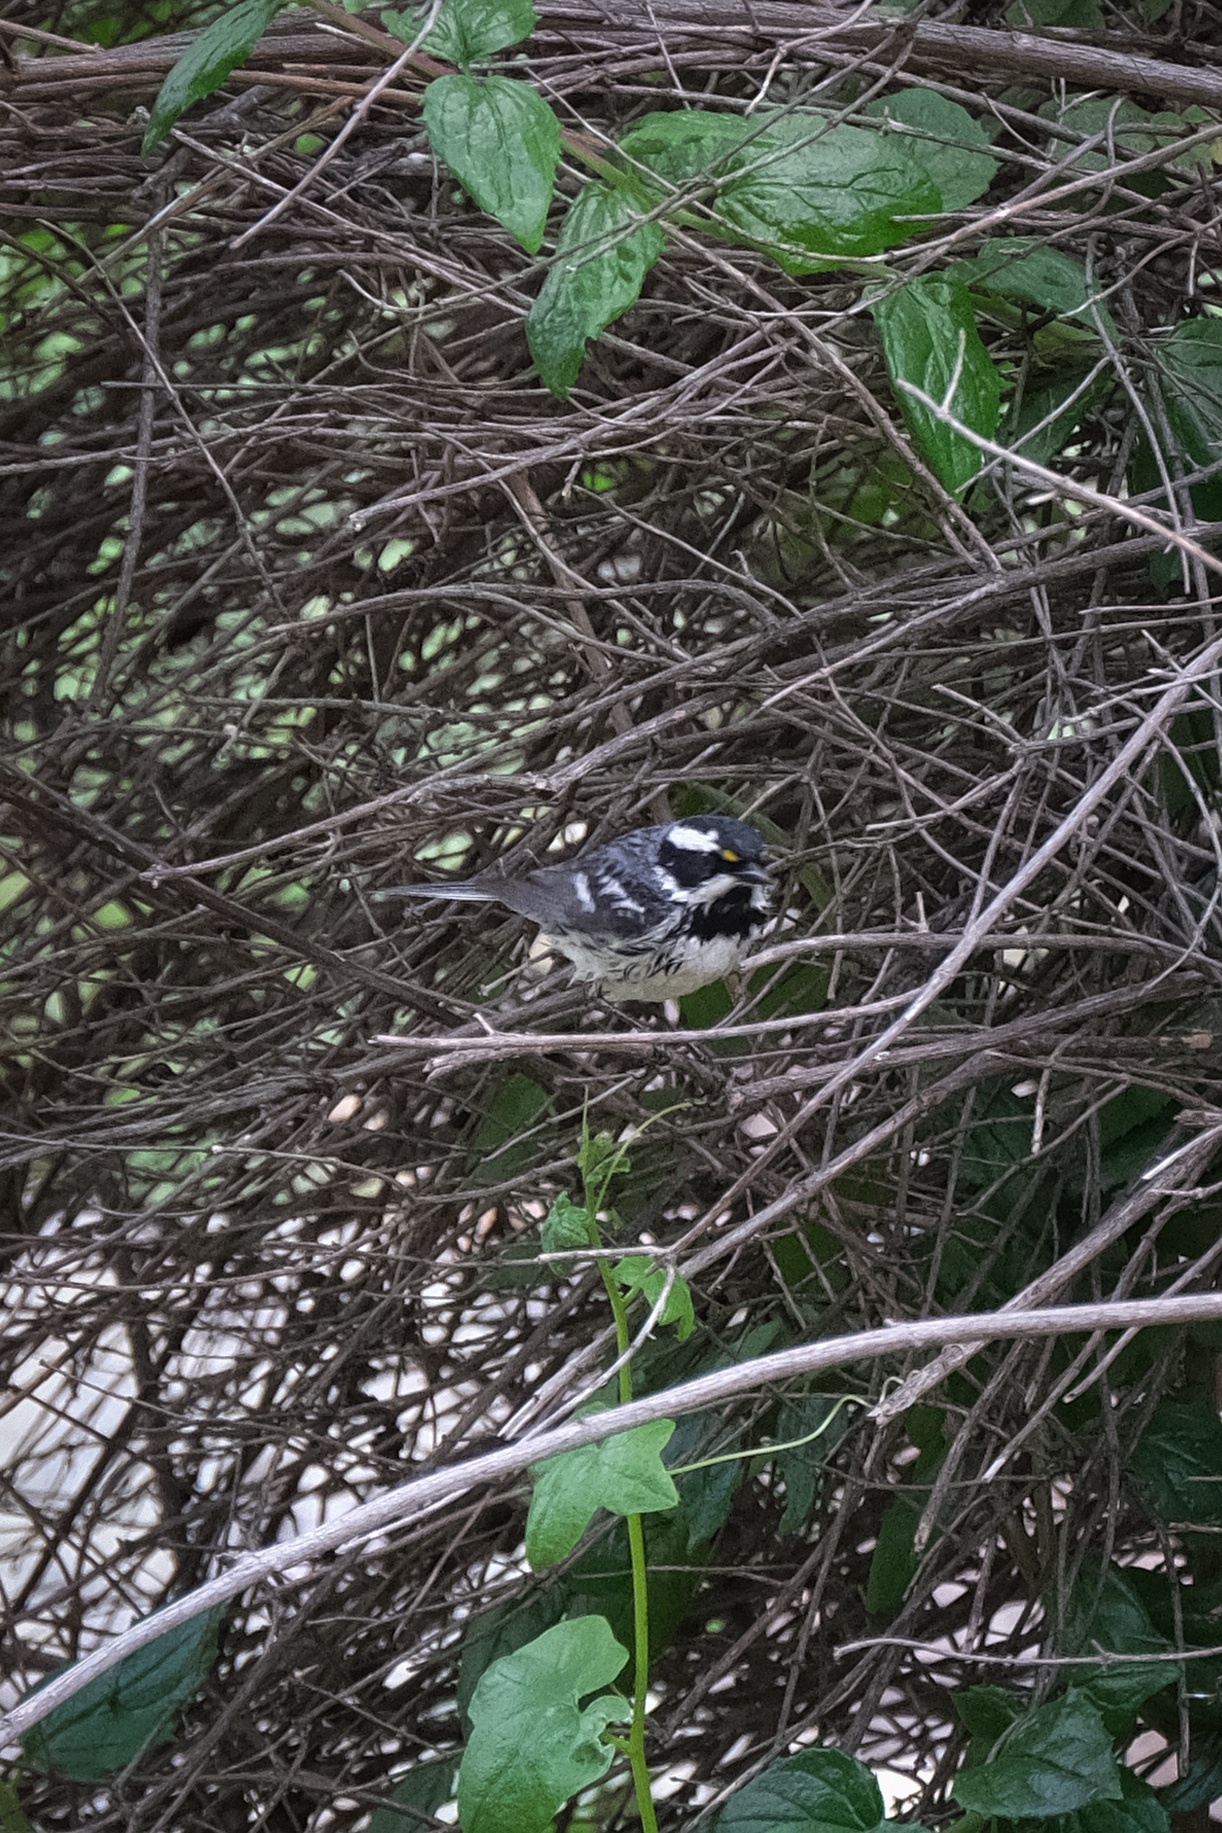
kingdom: Animalia
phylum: Chordata
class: Aves
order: Passeriformes
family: Parulidae
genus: Setophaga
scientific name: Setophaga nigrescens
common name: Black-throated gray warbler
